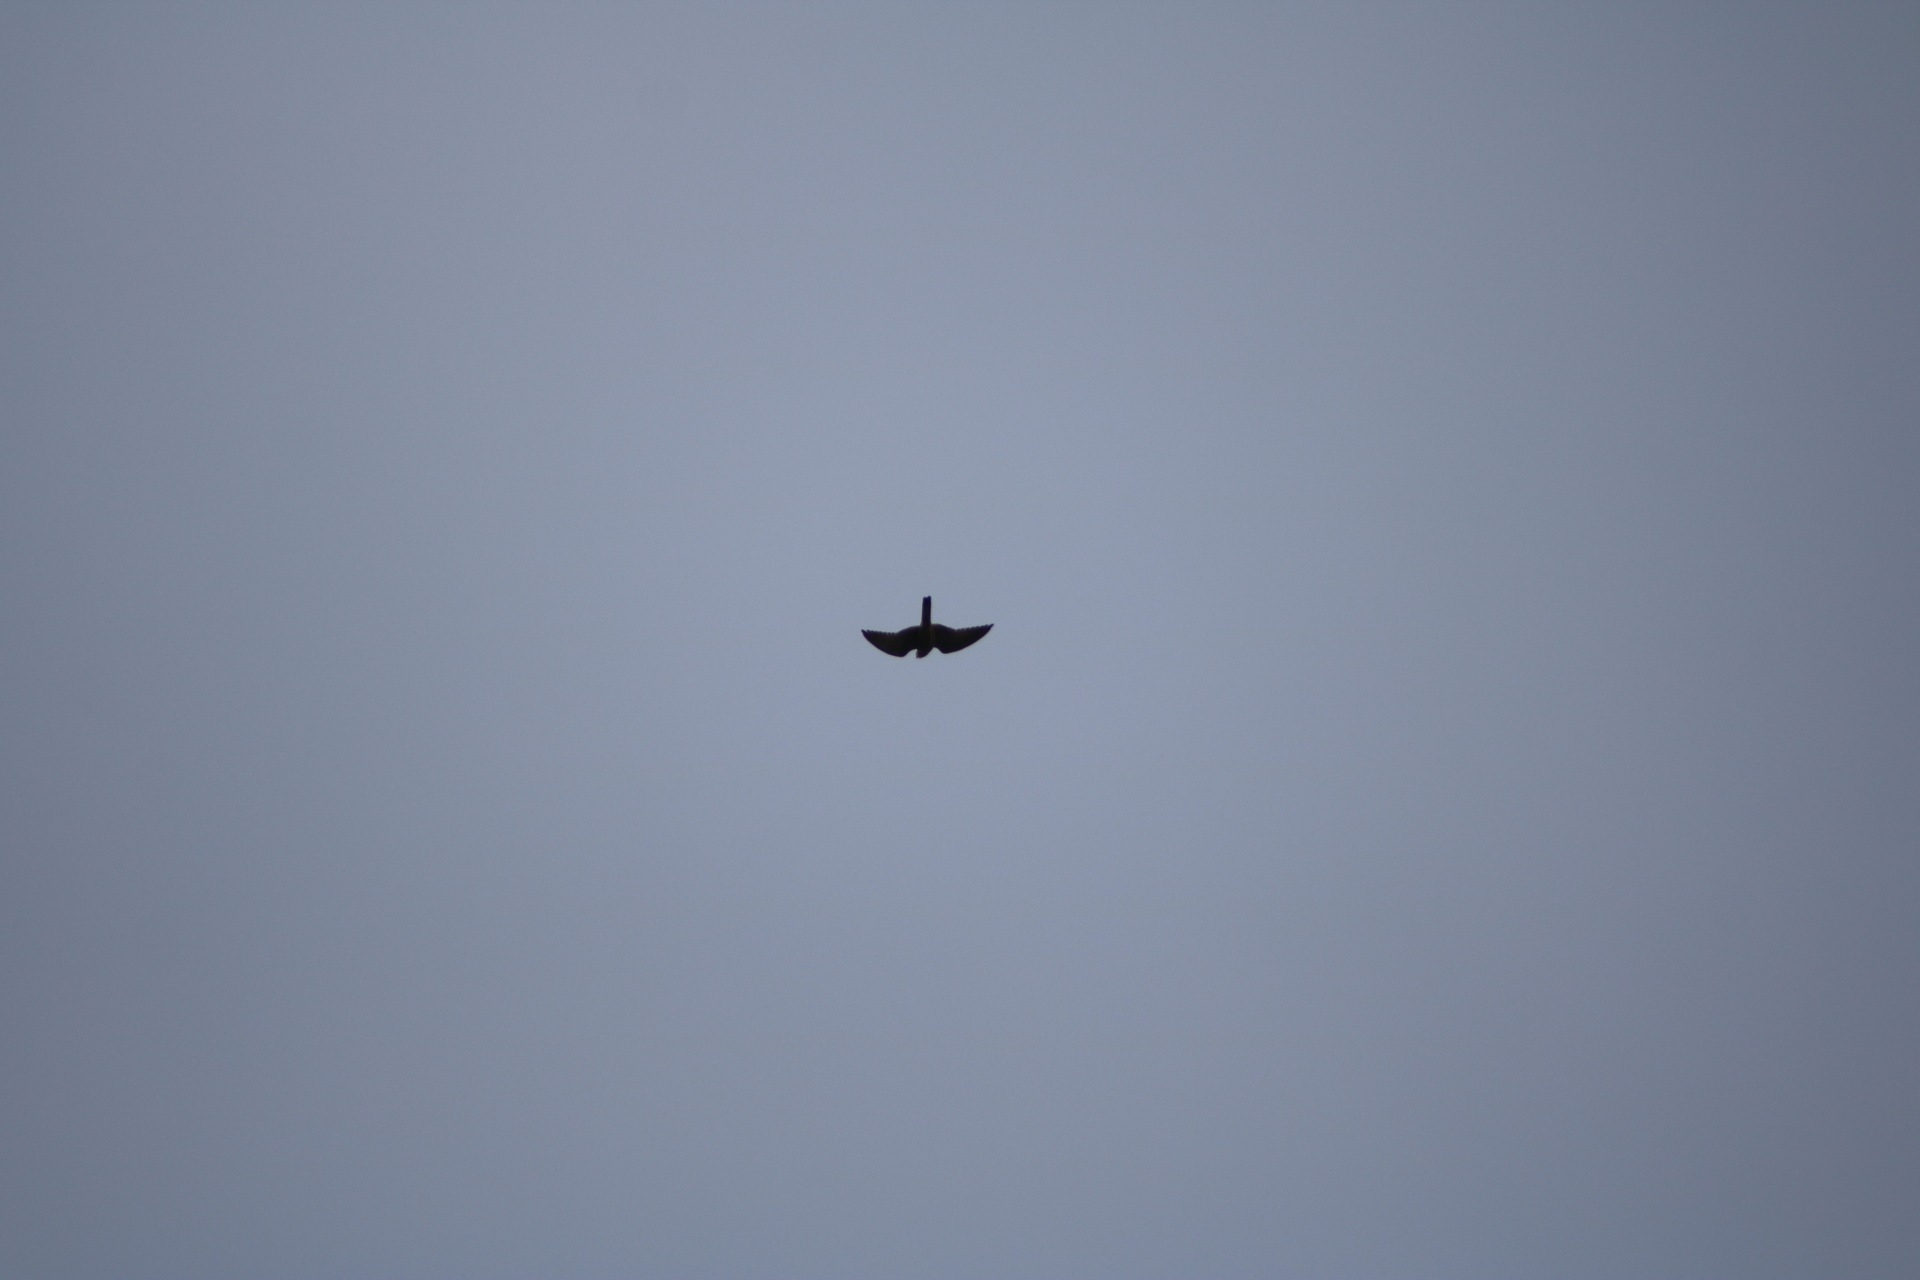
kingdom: Animalia
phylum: Chordata
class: Aves
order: Falconiformes
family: Falconidae
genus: Falco
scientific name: Falco tinnunculus
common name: Common kestrel
